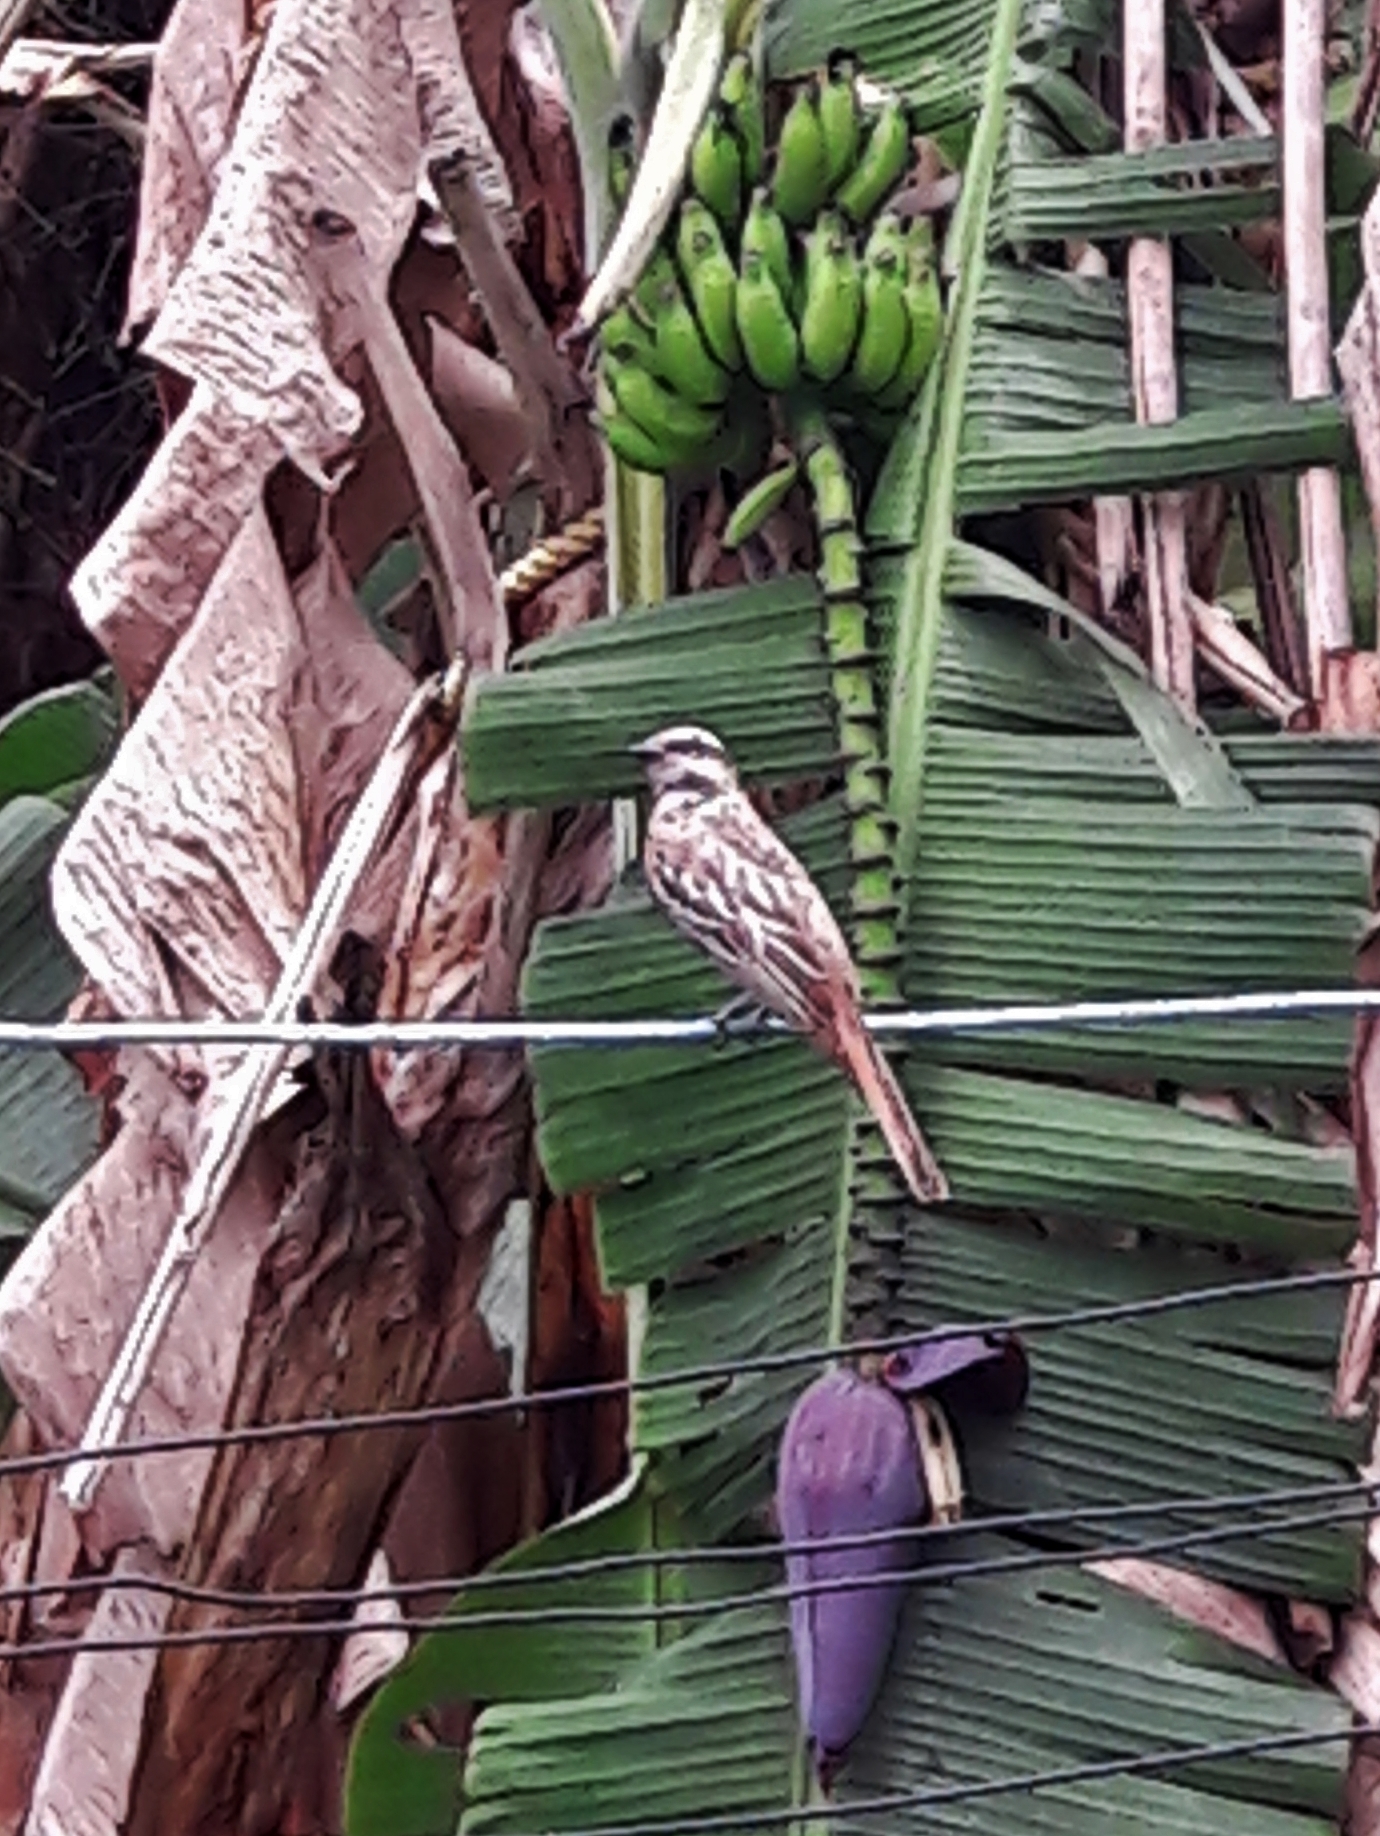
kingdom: Animalia
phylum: Chordata
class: Aves
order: Passeriformes
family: Tyrannidae
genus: Empidonomus
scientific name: Empidonomus varius
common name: Variegated flycatcher
